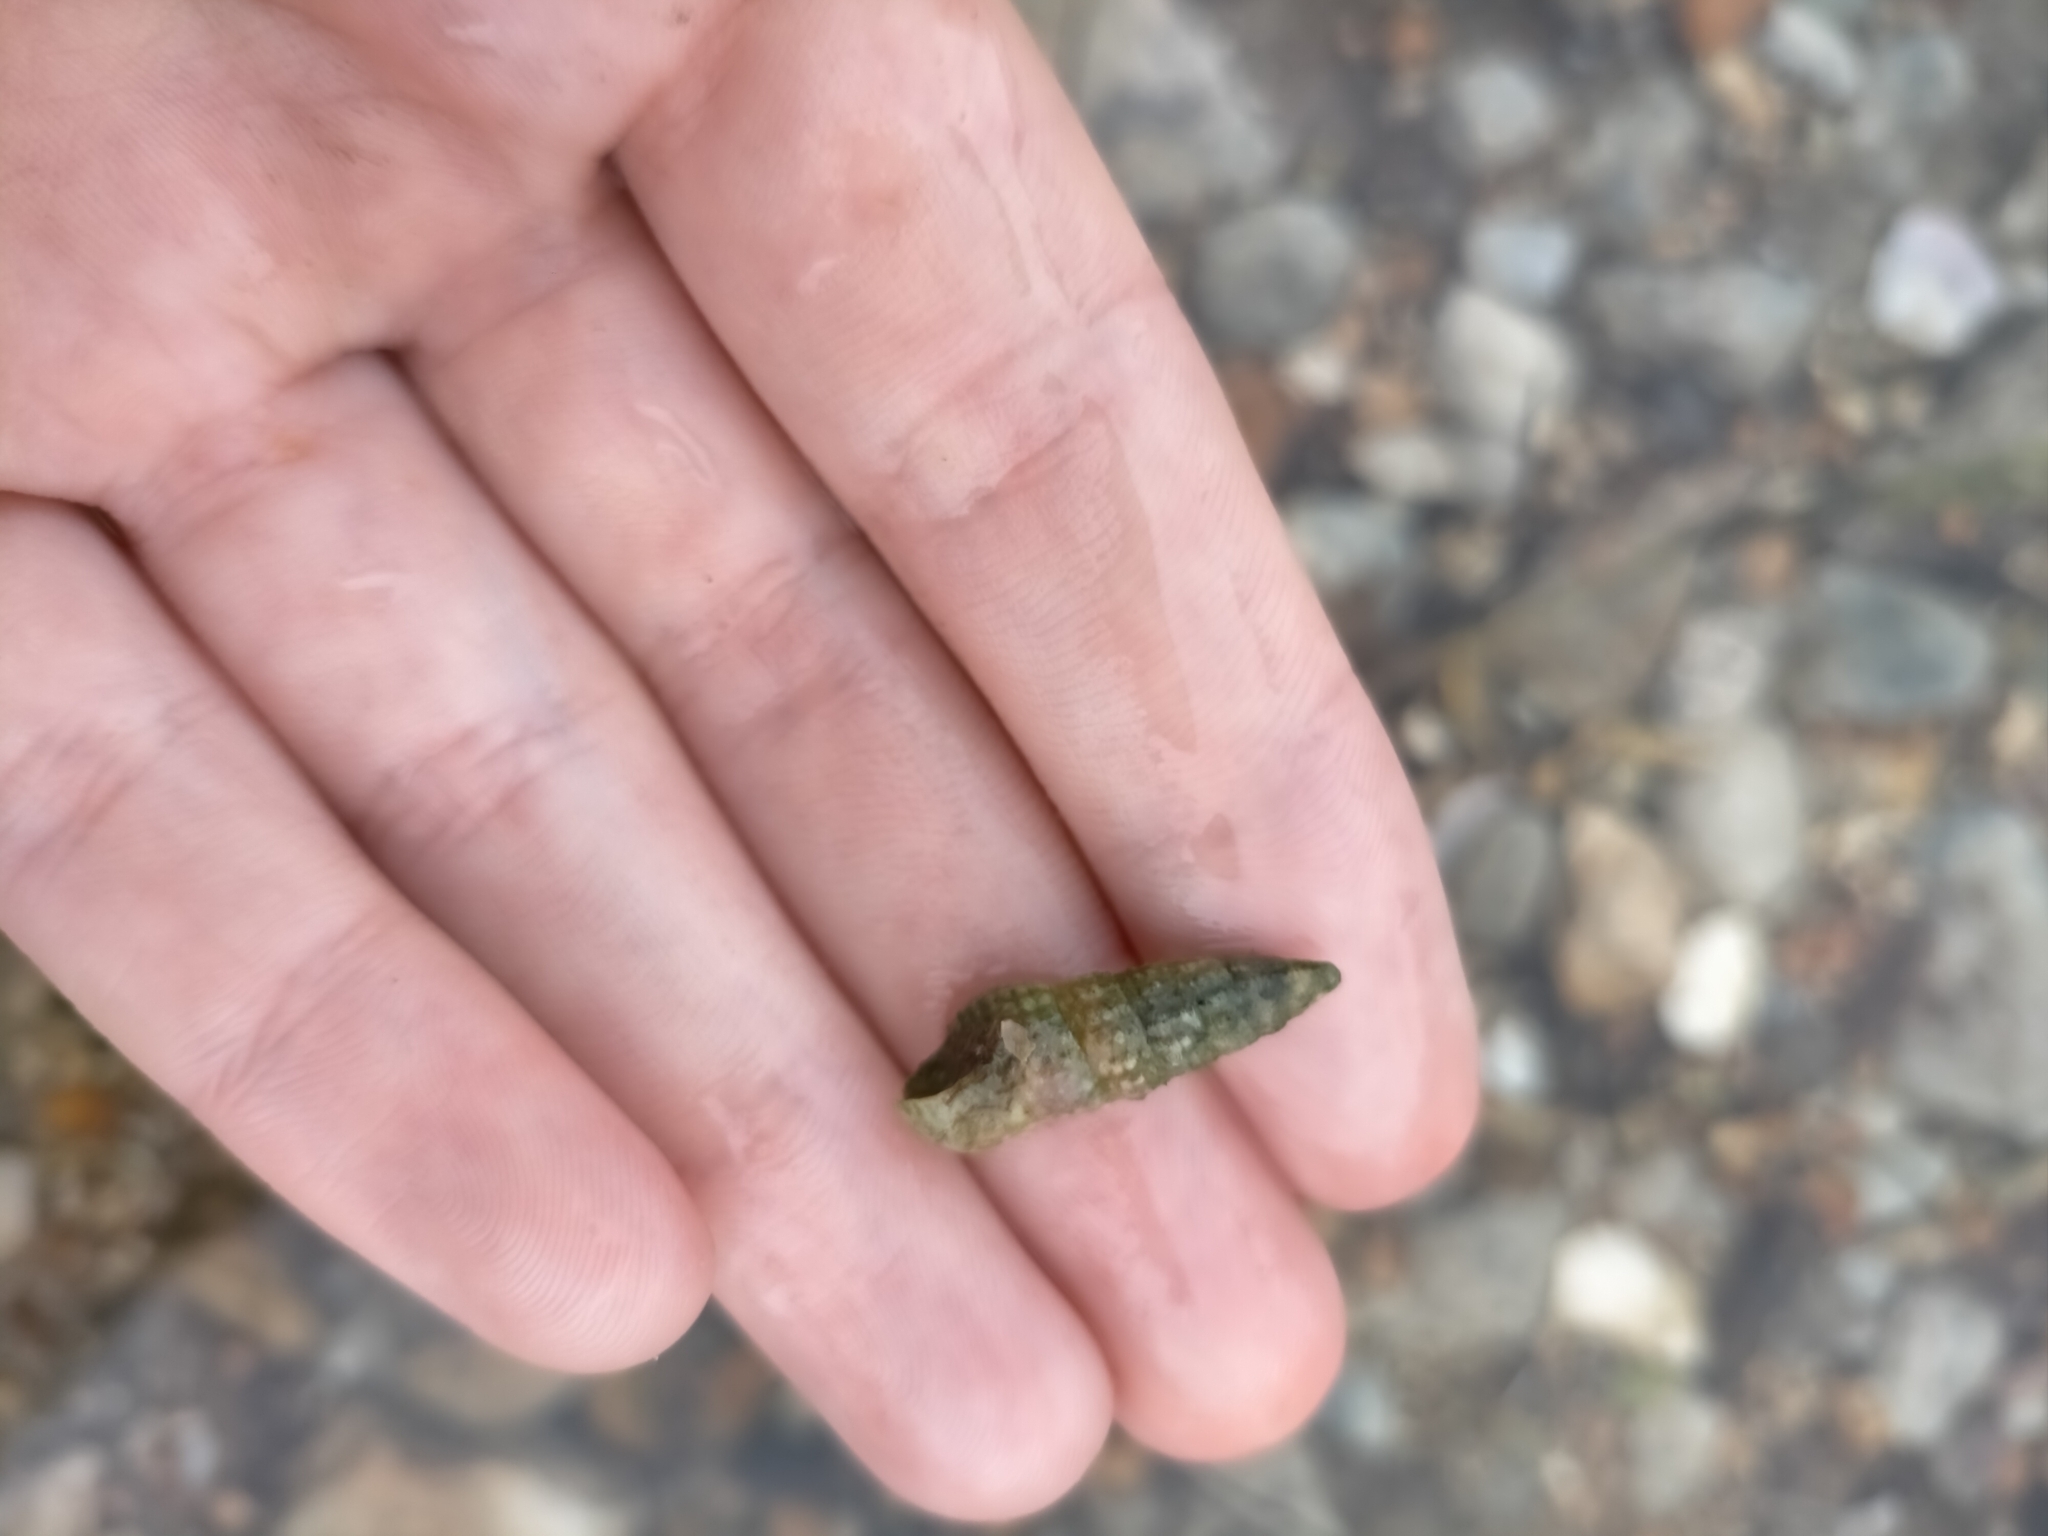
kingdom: Animalia
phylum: Mollusca
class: Gastropoda
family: Batillariidae
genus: Zeacumantus
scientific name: Zeacumantus diemenensis
